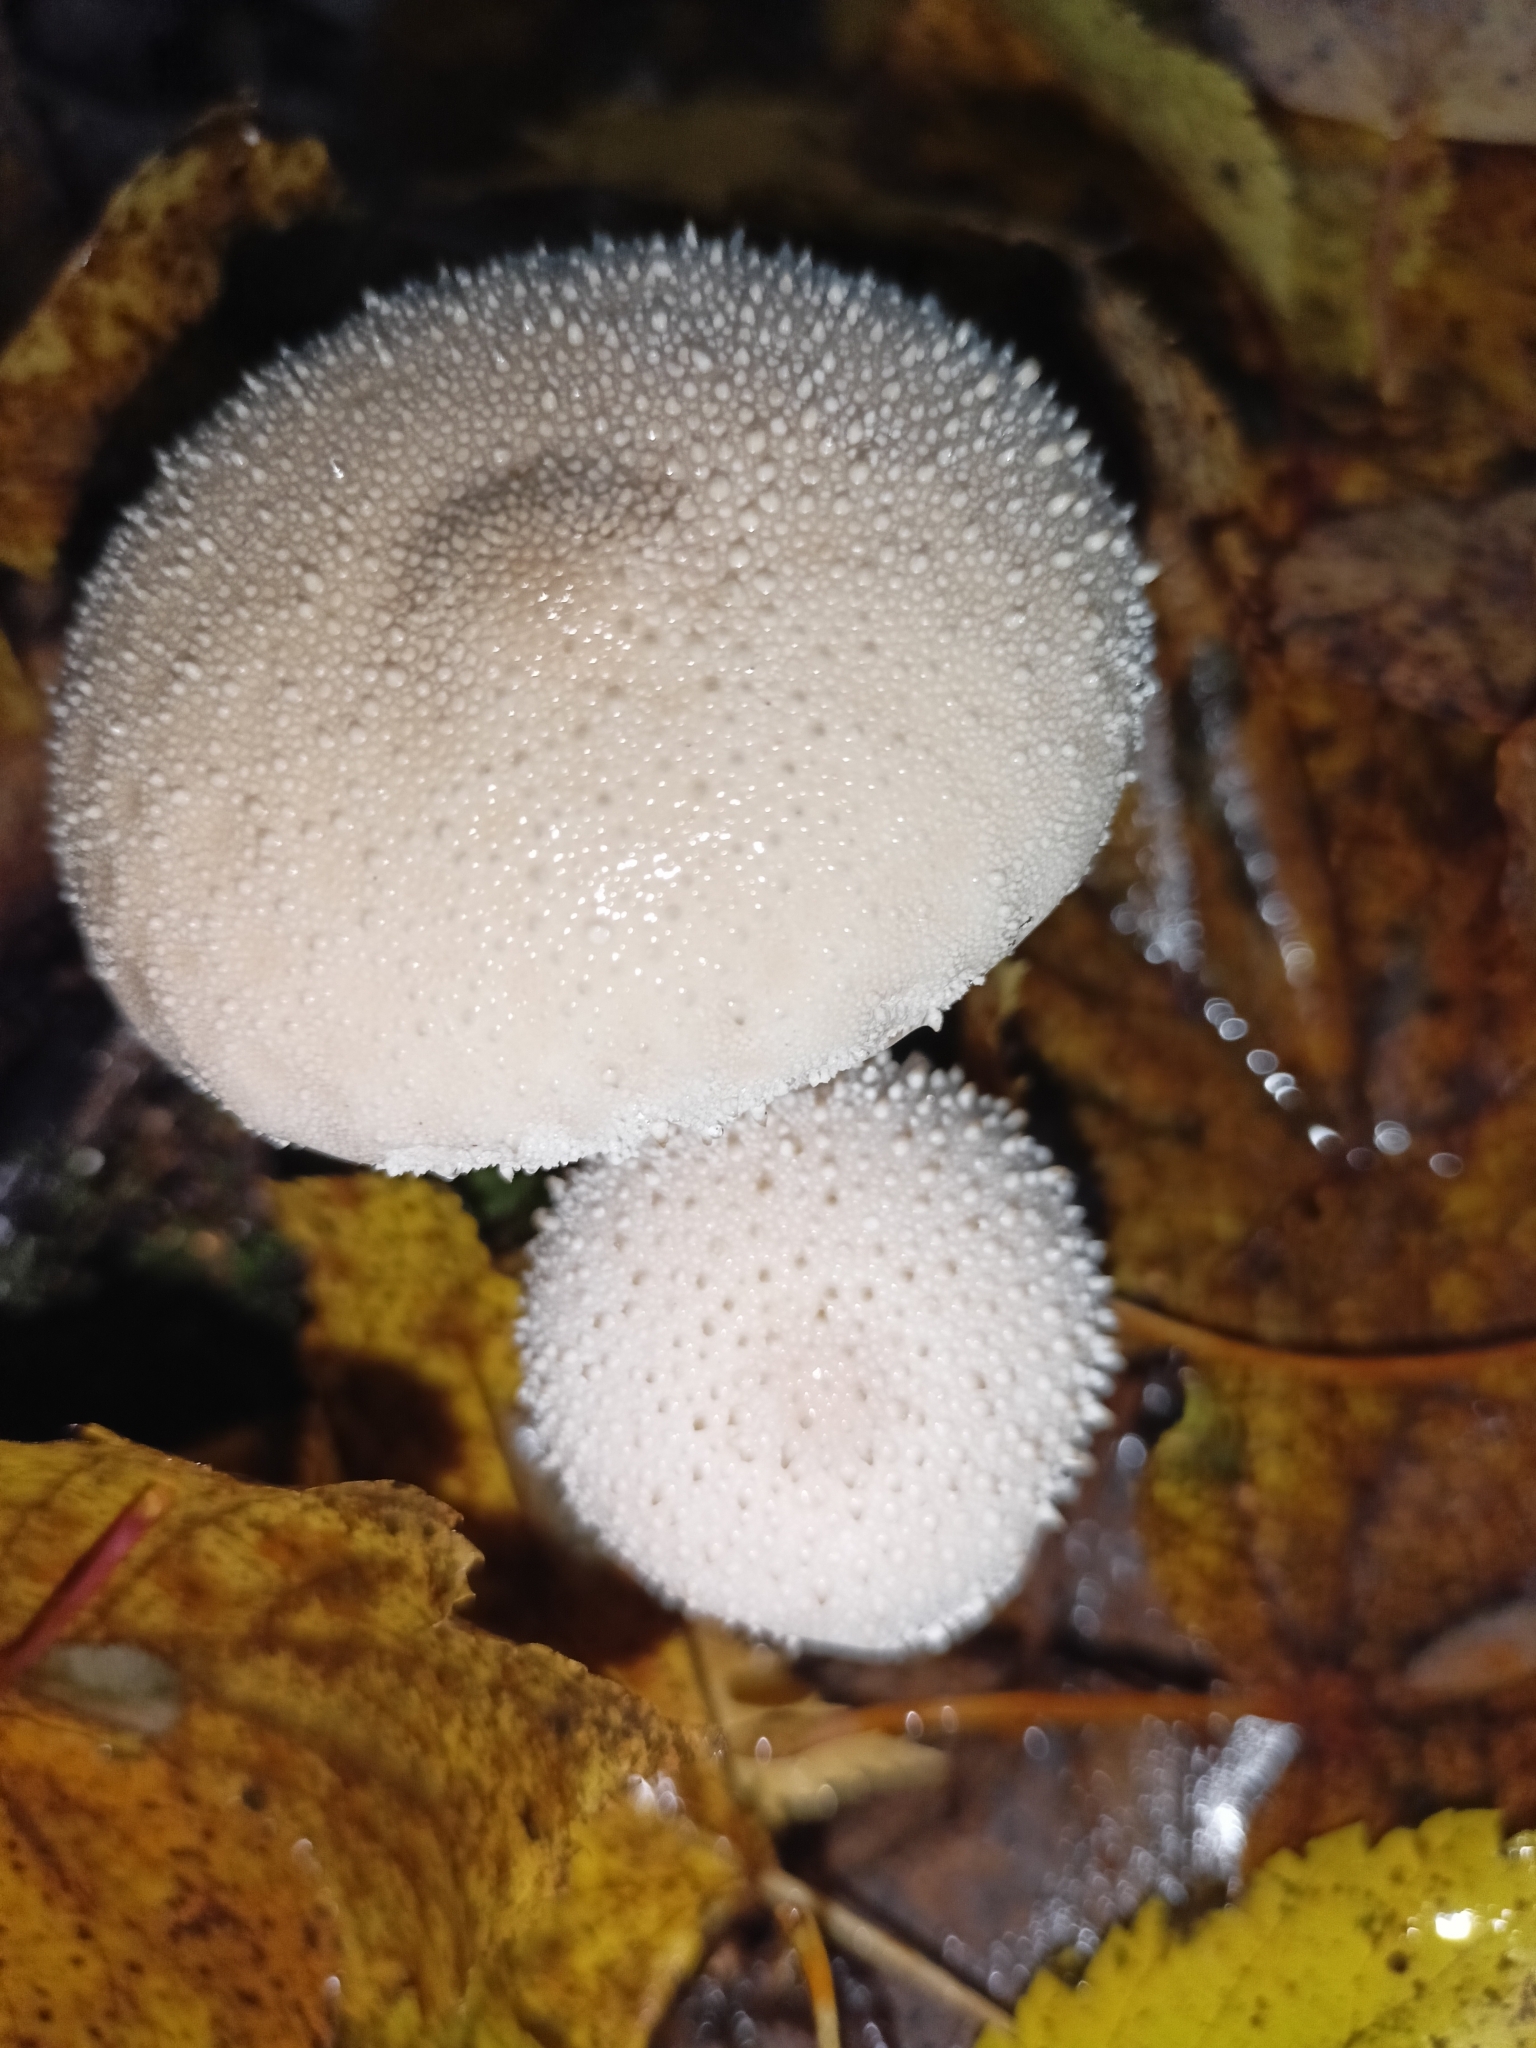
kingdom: Fungi
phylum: Basidiomycota
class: Agaricomycetes
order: Agaricales
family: Lycoperdaceae
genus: Lycoperdon
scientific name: Lycoperdon perlatum
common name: Common puffball
